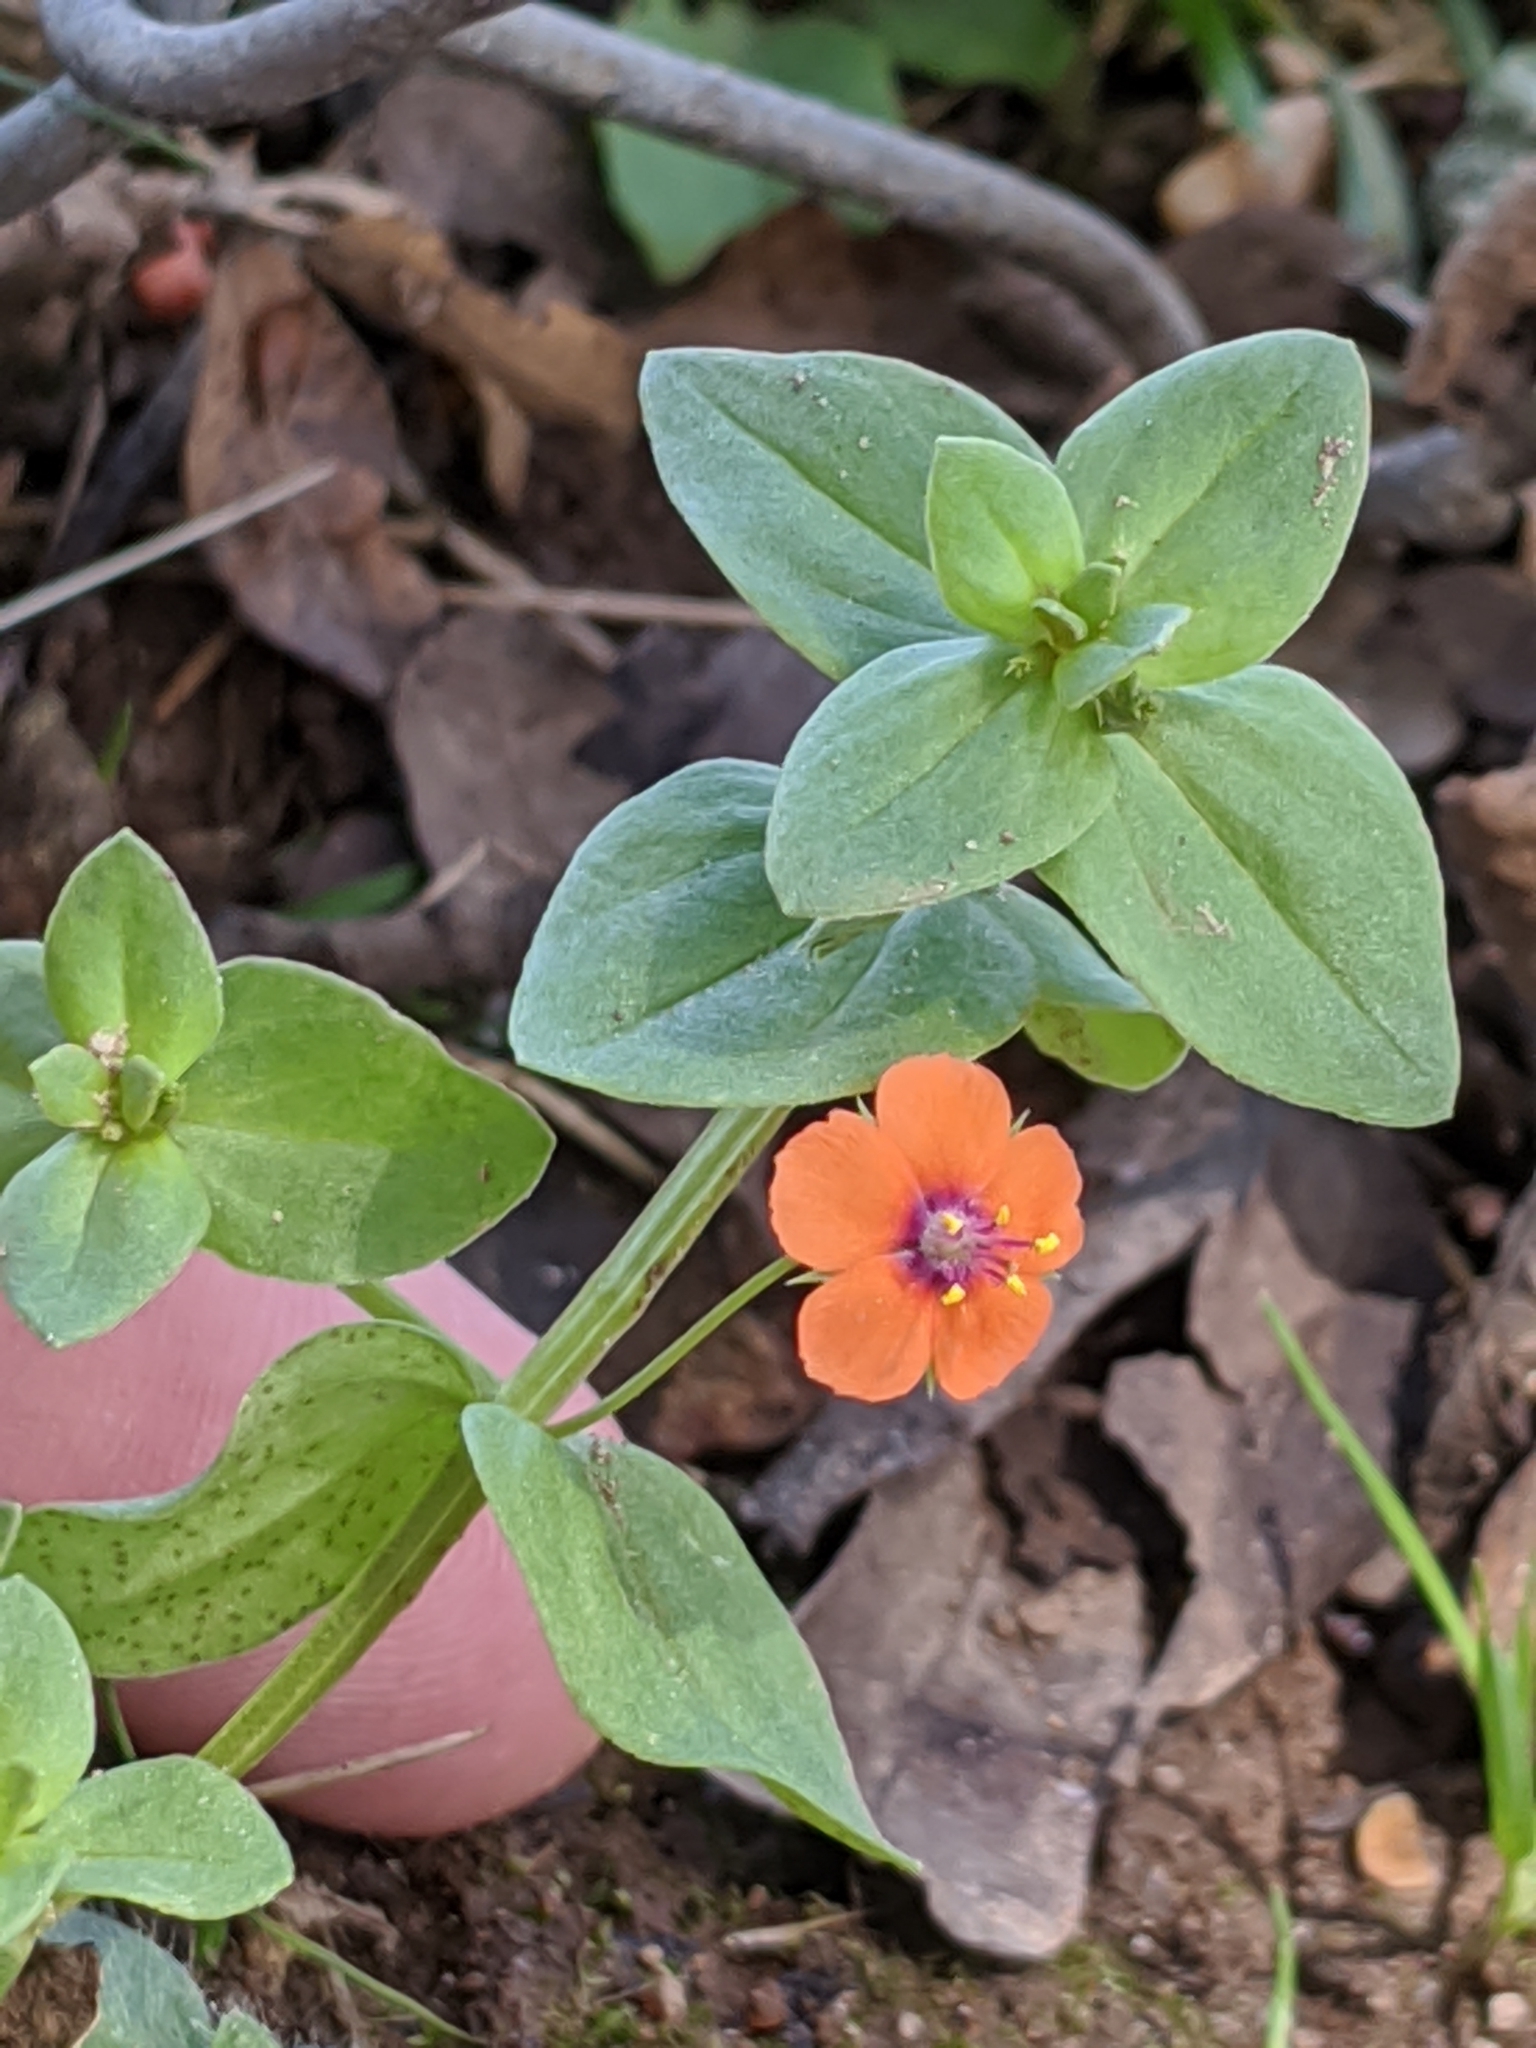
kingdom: Plantae
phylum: Tracheophyta
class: Magnoliopsida
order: Ericales
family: Primulaceae
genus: Lysimachia
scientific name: Lysimachia arvensis
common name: Scarlet pimpernel
